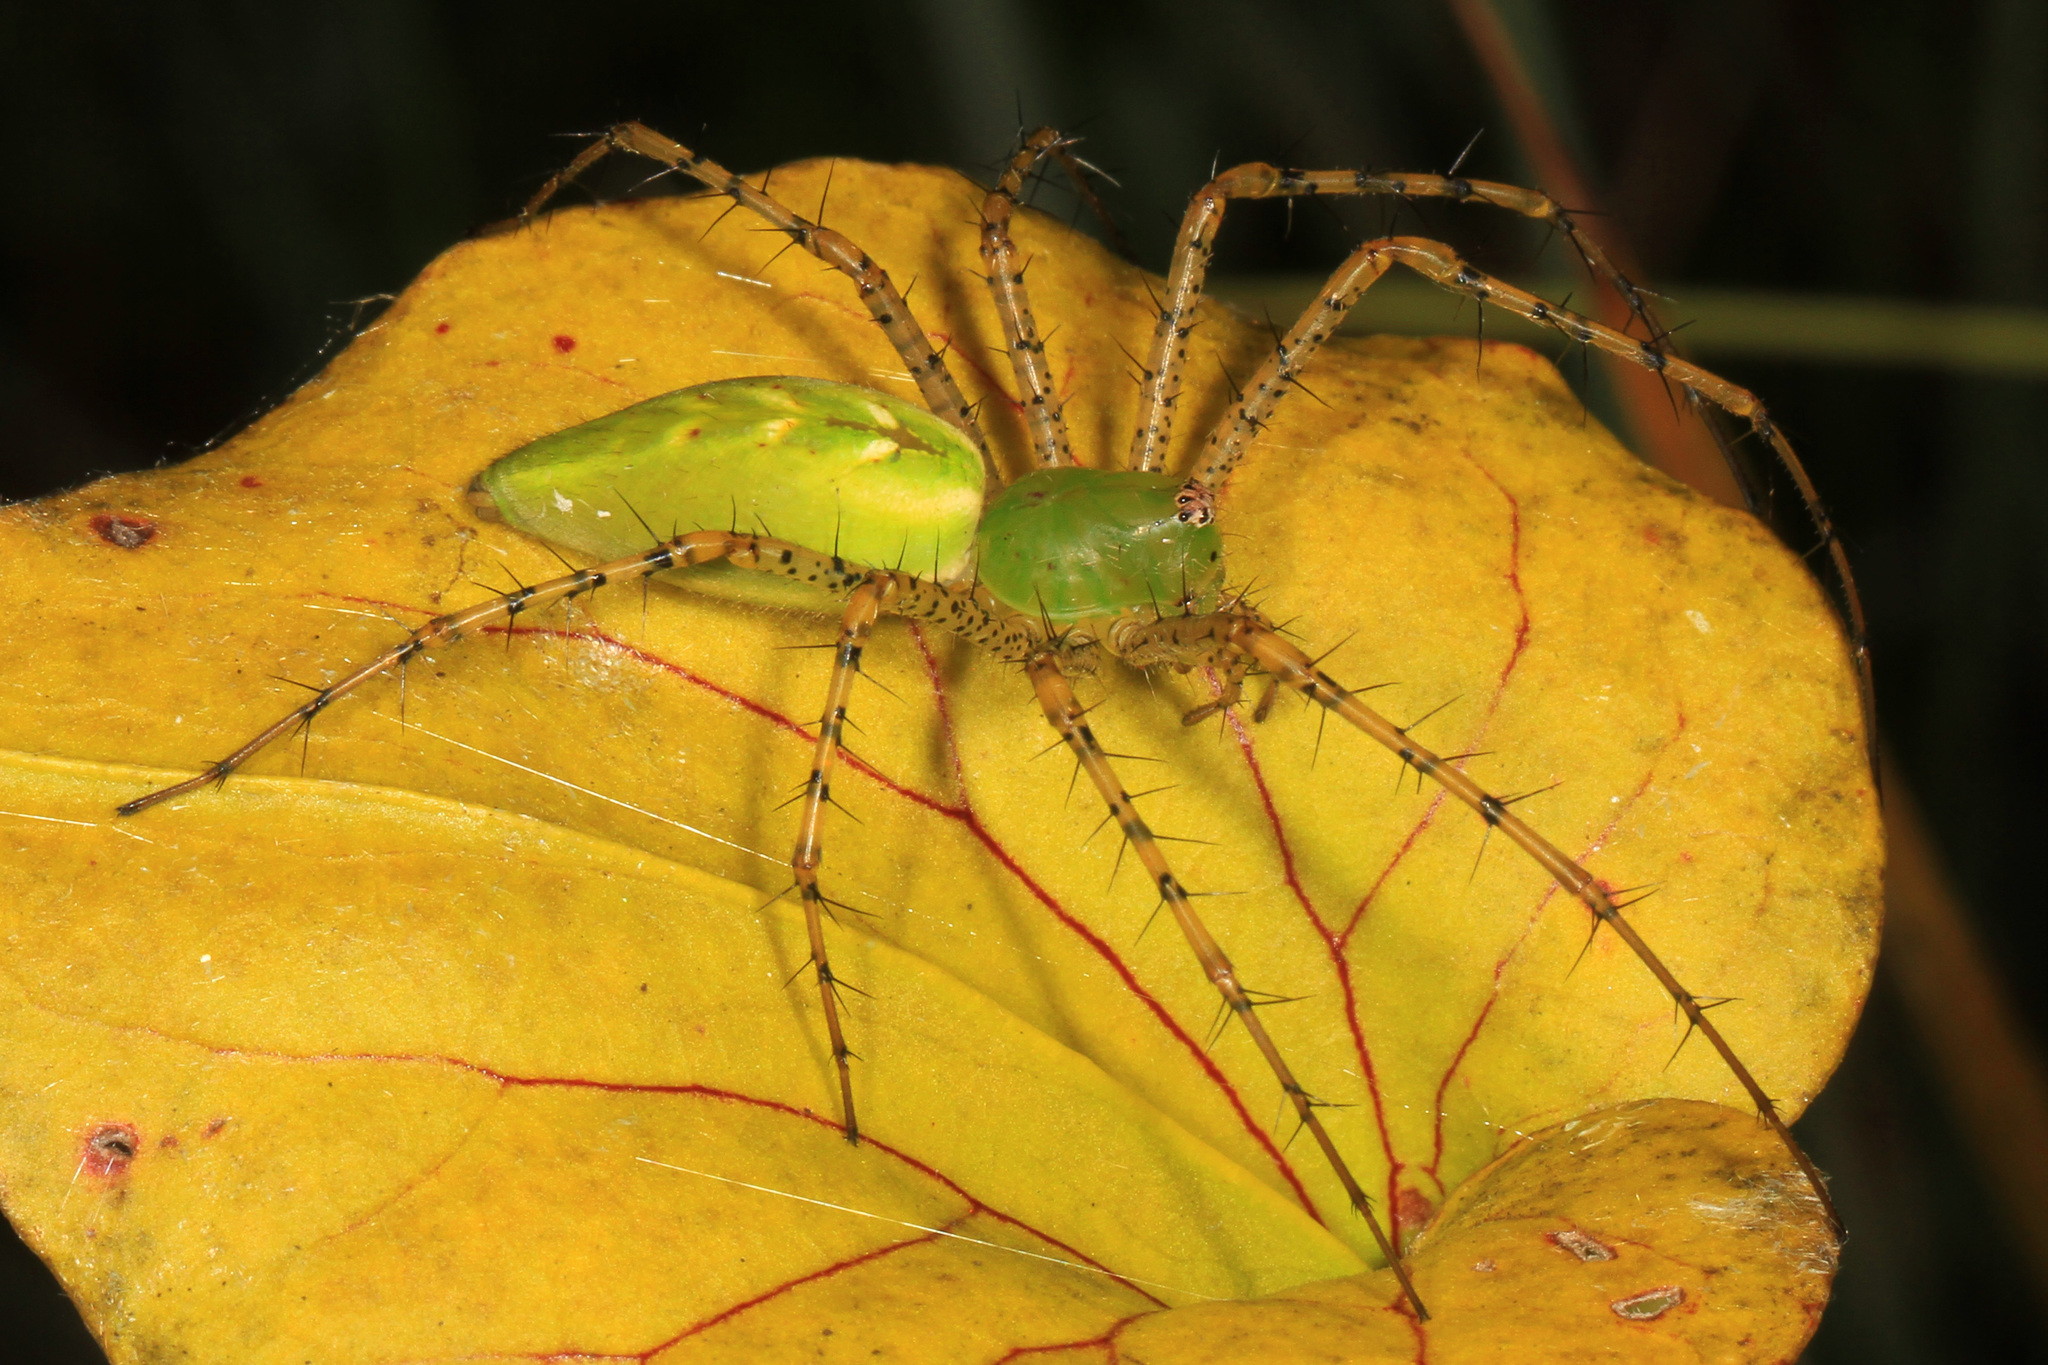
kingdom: Animalia
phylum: Arthropoda
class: Arachnida
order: Araneae
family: Oxyopidae
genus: Peucetia
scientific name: Peucetia viridans
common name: Lynx spiders
